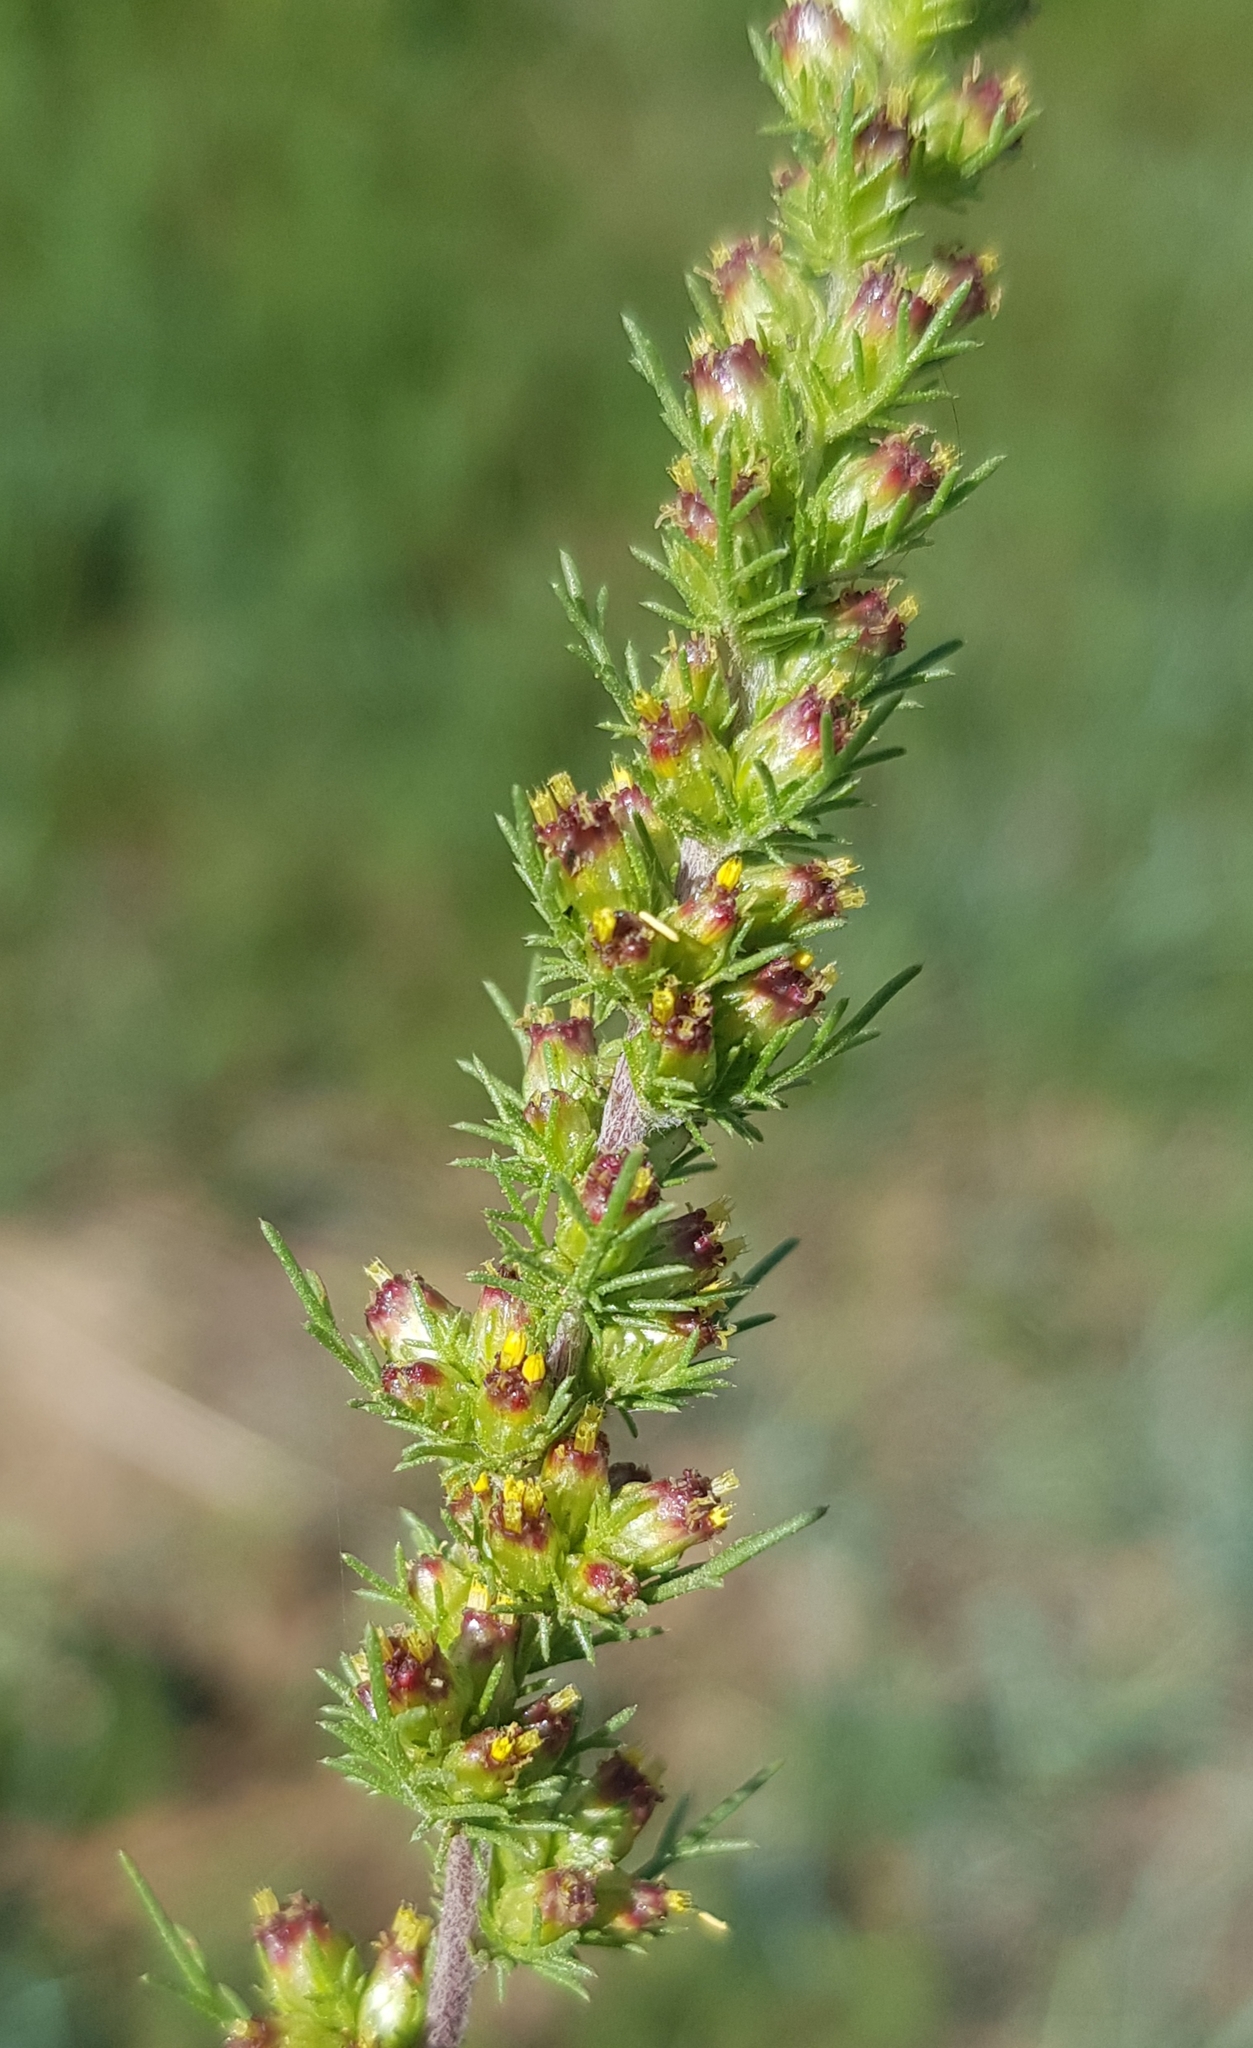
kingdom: Plantae
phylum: Tracheophyta
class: Magnoliopsida
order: Asterales
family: Asteraceae
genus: Neopallasia
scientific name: Neopallasia pectinata
